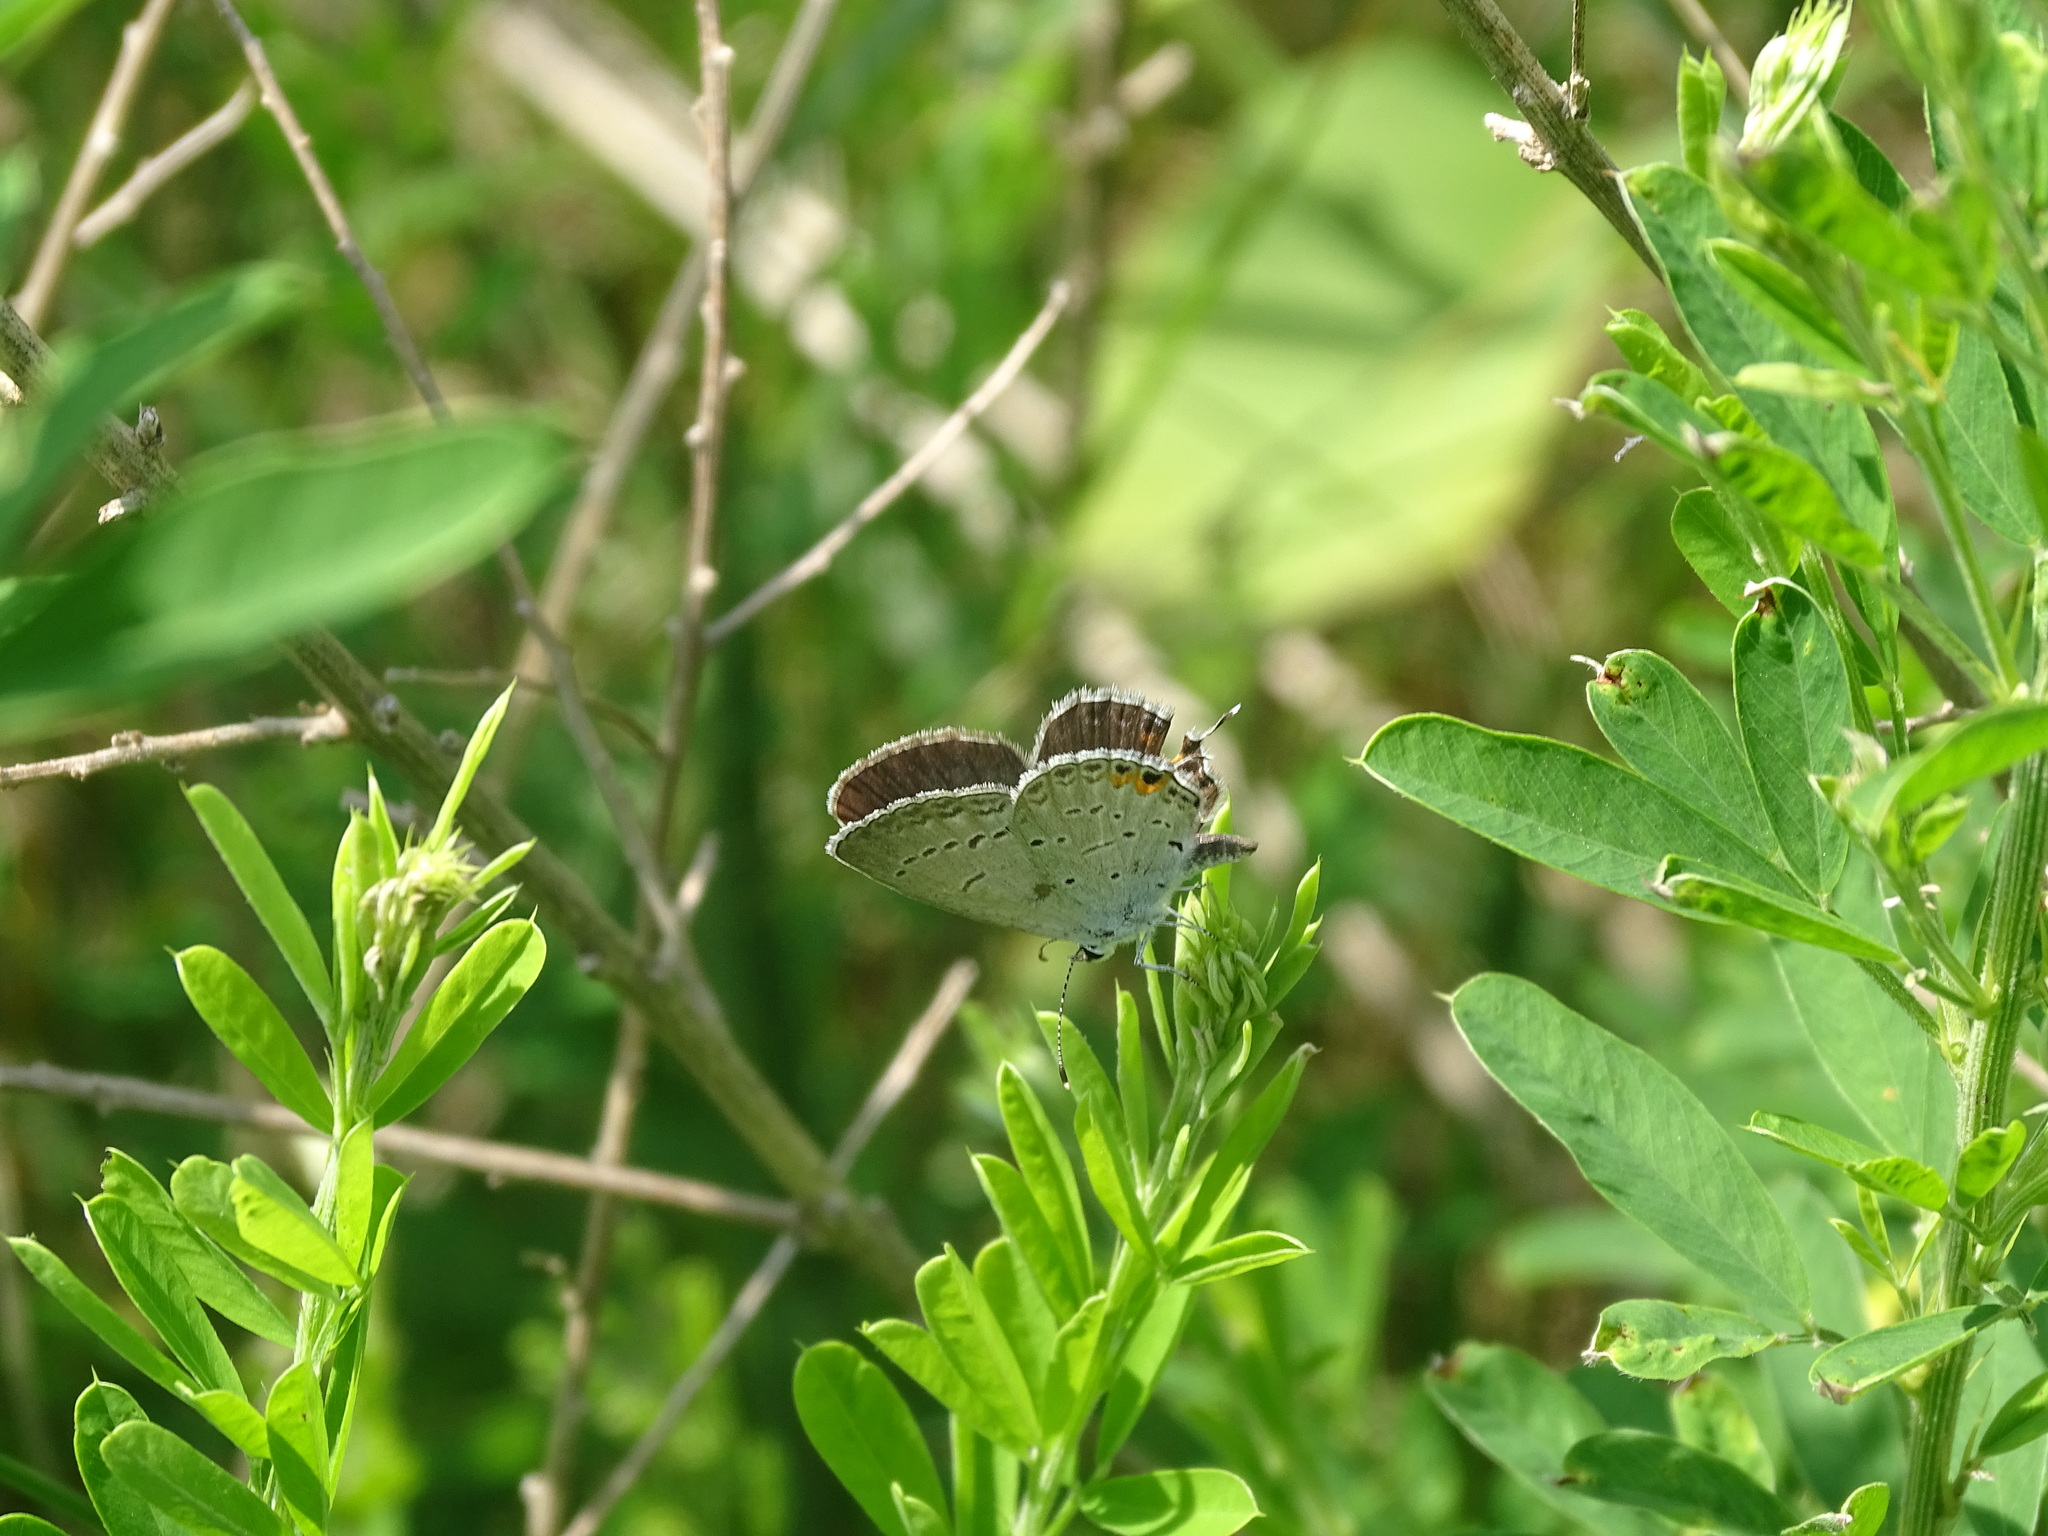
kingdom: Animalia
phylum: Arthropoda
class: Insecta
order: Lepidoptera
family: Lycaenidae
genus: Elkalyce
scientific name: Elkalyce comyntas
